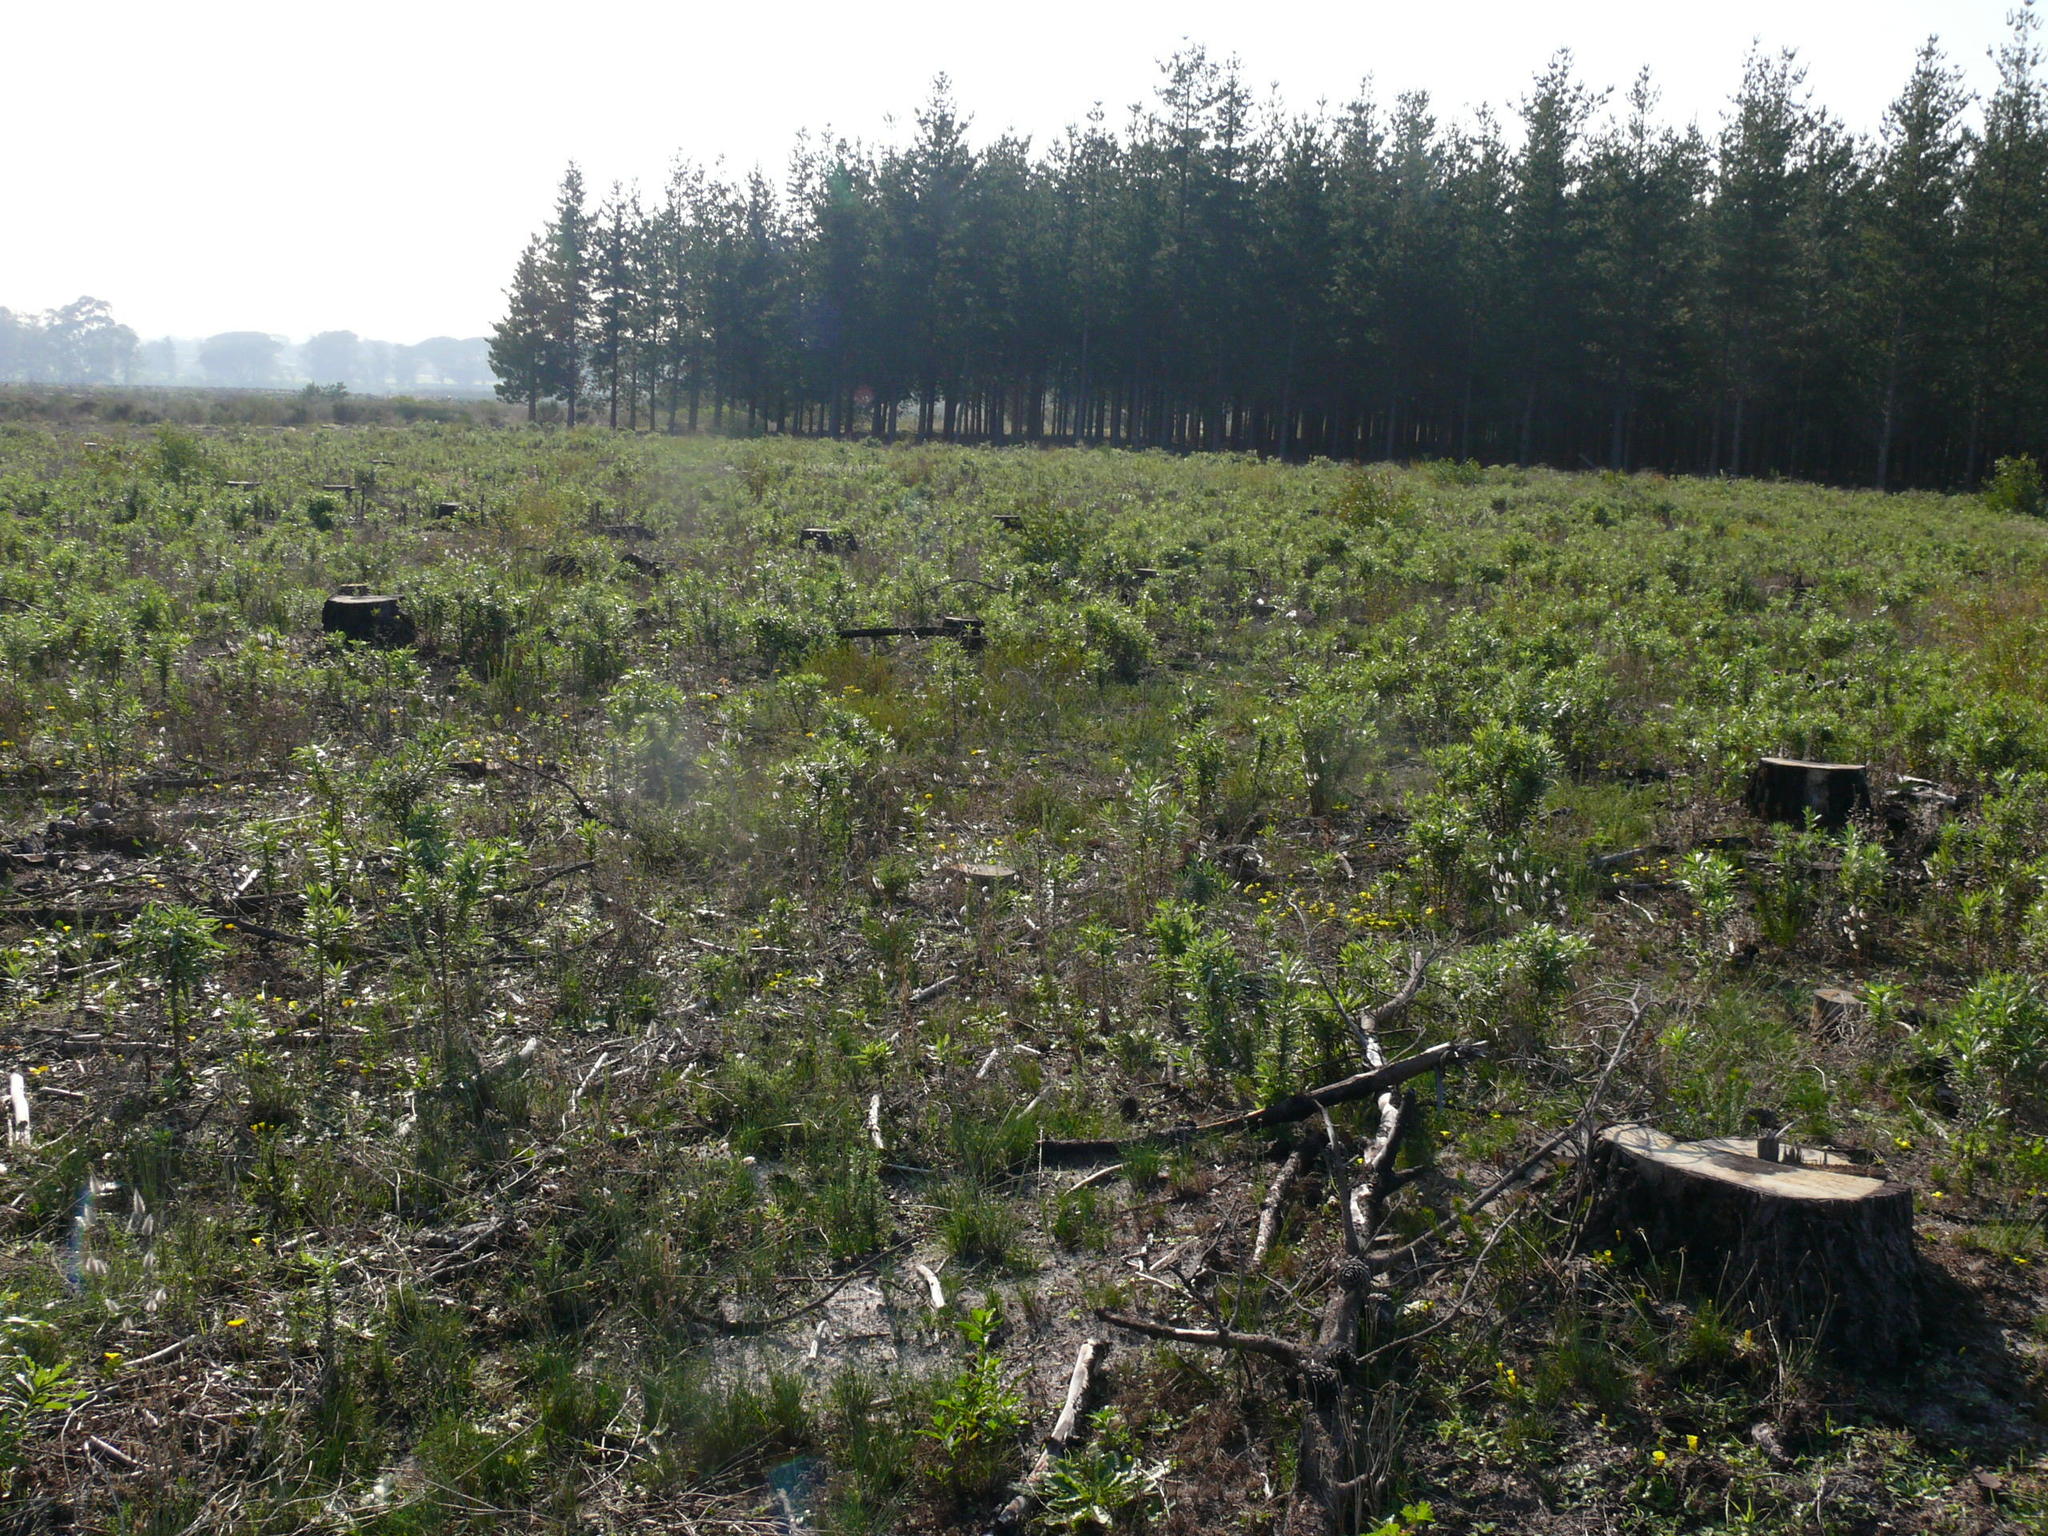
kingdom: Plantae
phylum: Tracheophyta
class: Magnoliopsida
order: Asterales
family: Asteraceae
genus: Senecio
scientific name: Senecio pterophorus
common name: Shoddy ragwort
